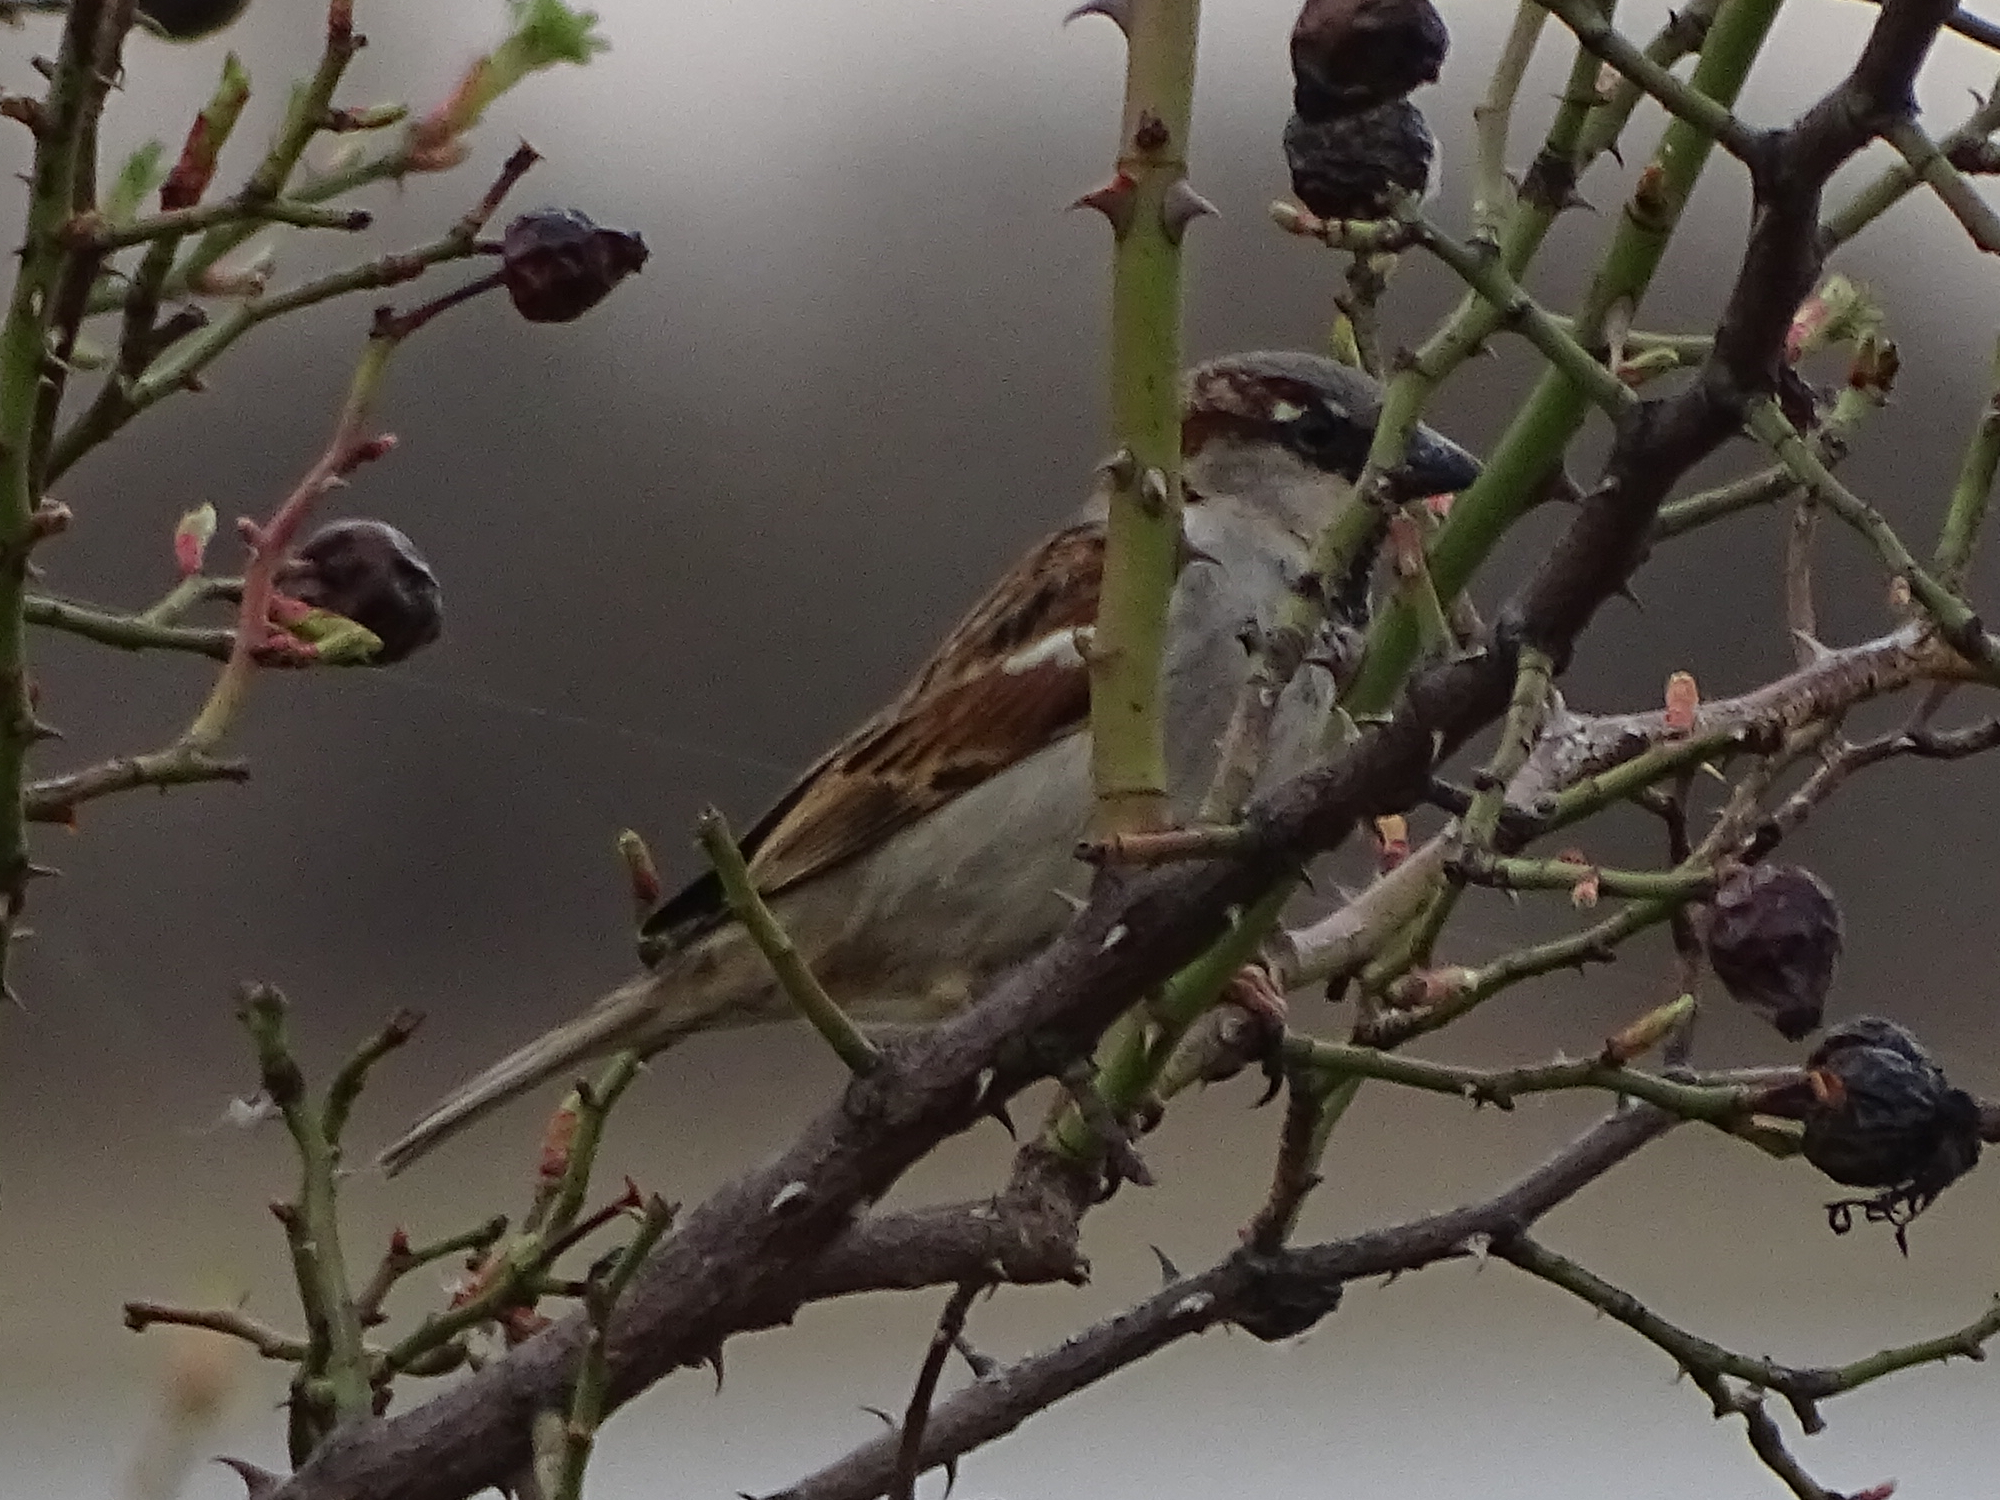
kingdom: Animalia
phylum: Chordata
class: Aves
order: Passeriformes
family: Passeridae
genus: Passer
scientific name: Passer domesticus
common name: House sparrow
